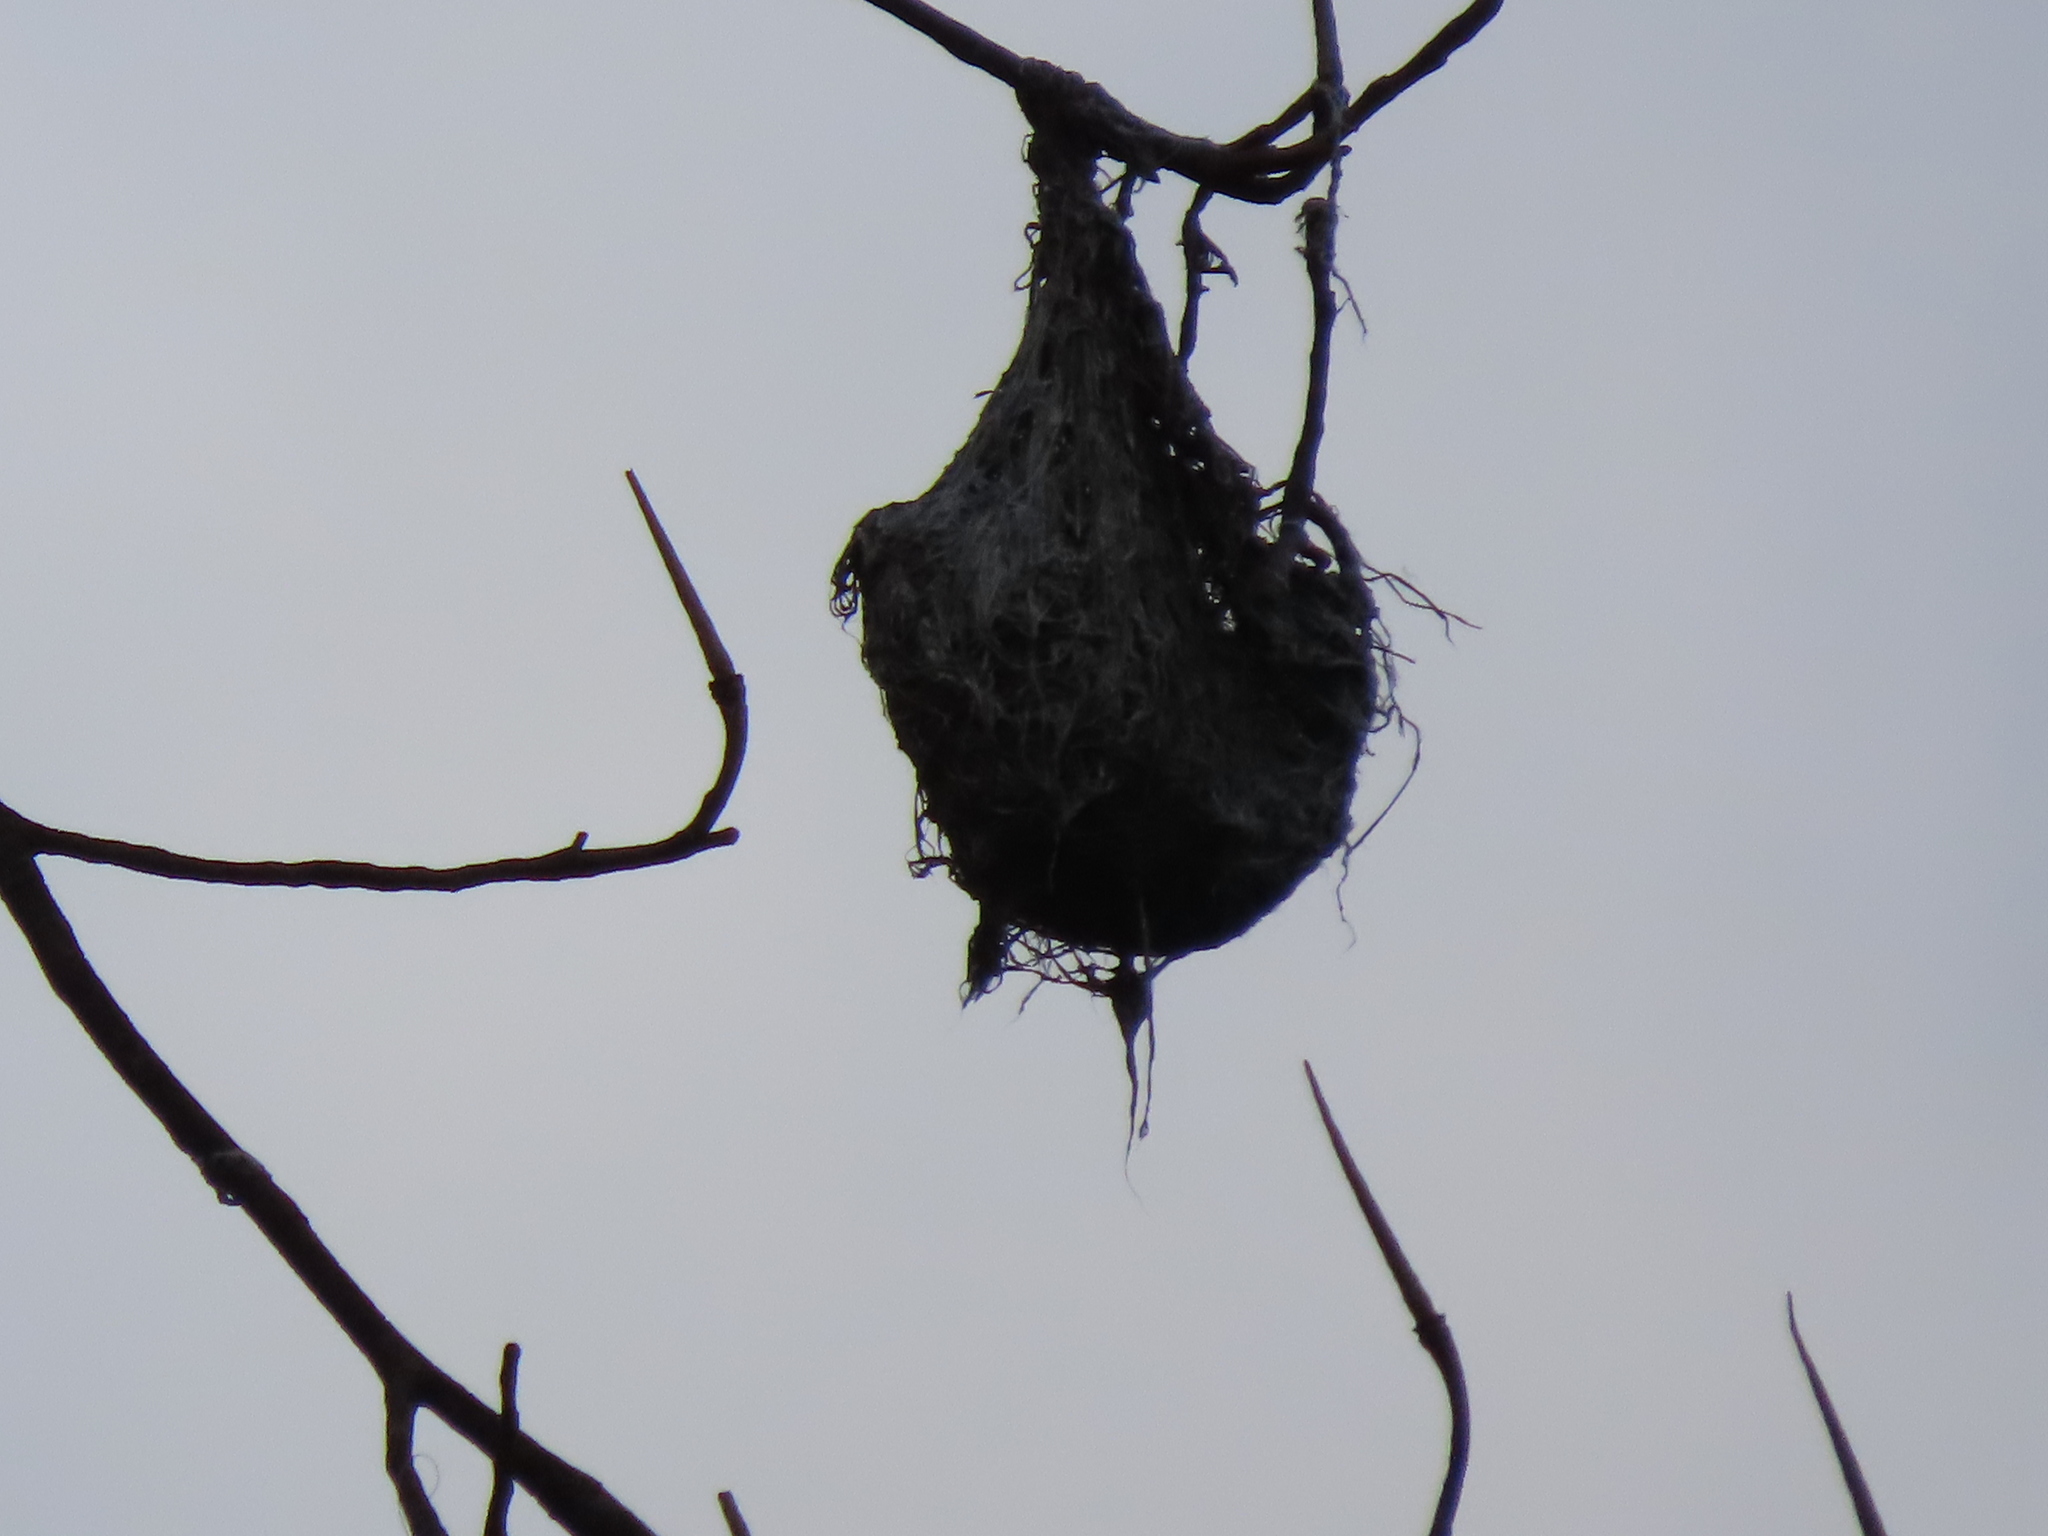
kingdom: Animalia
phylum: Chordata
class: Aves
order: Passeriformes
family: Icteridae
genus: Icterus
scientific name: Icterus galbula
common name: Baltimore oriole
